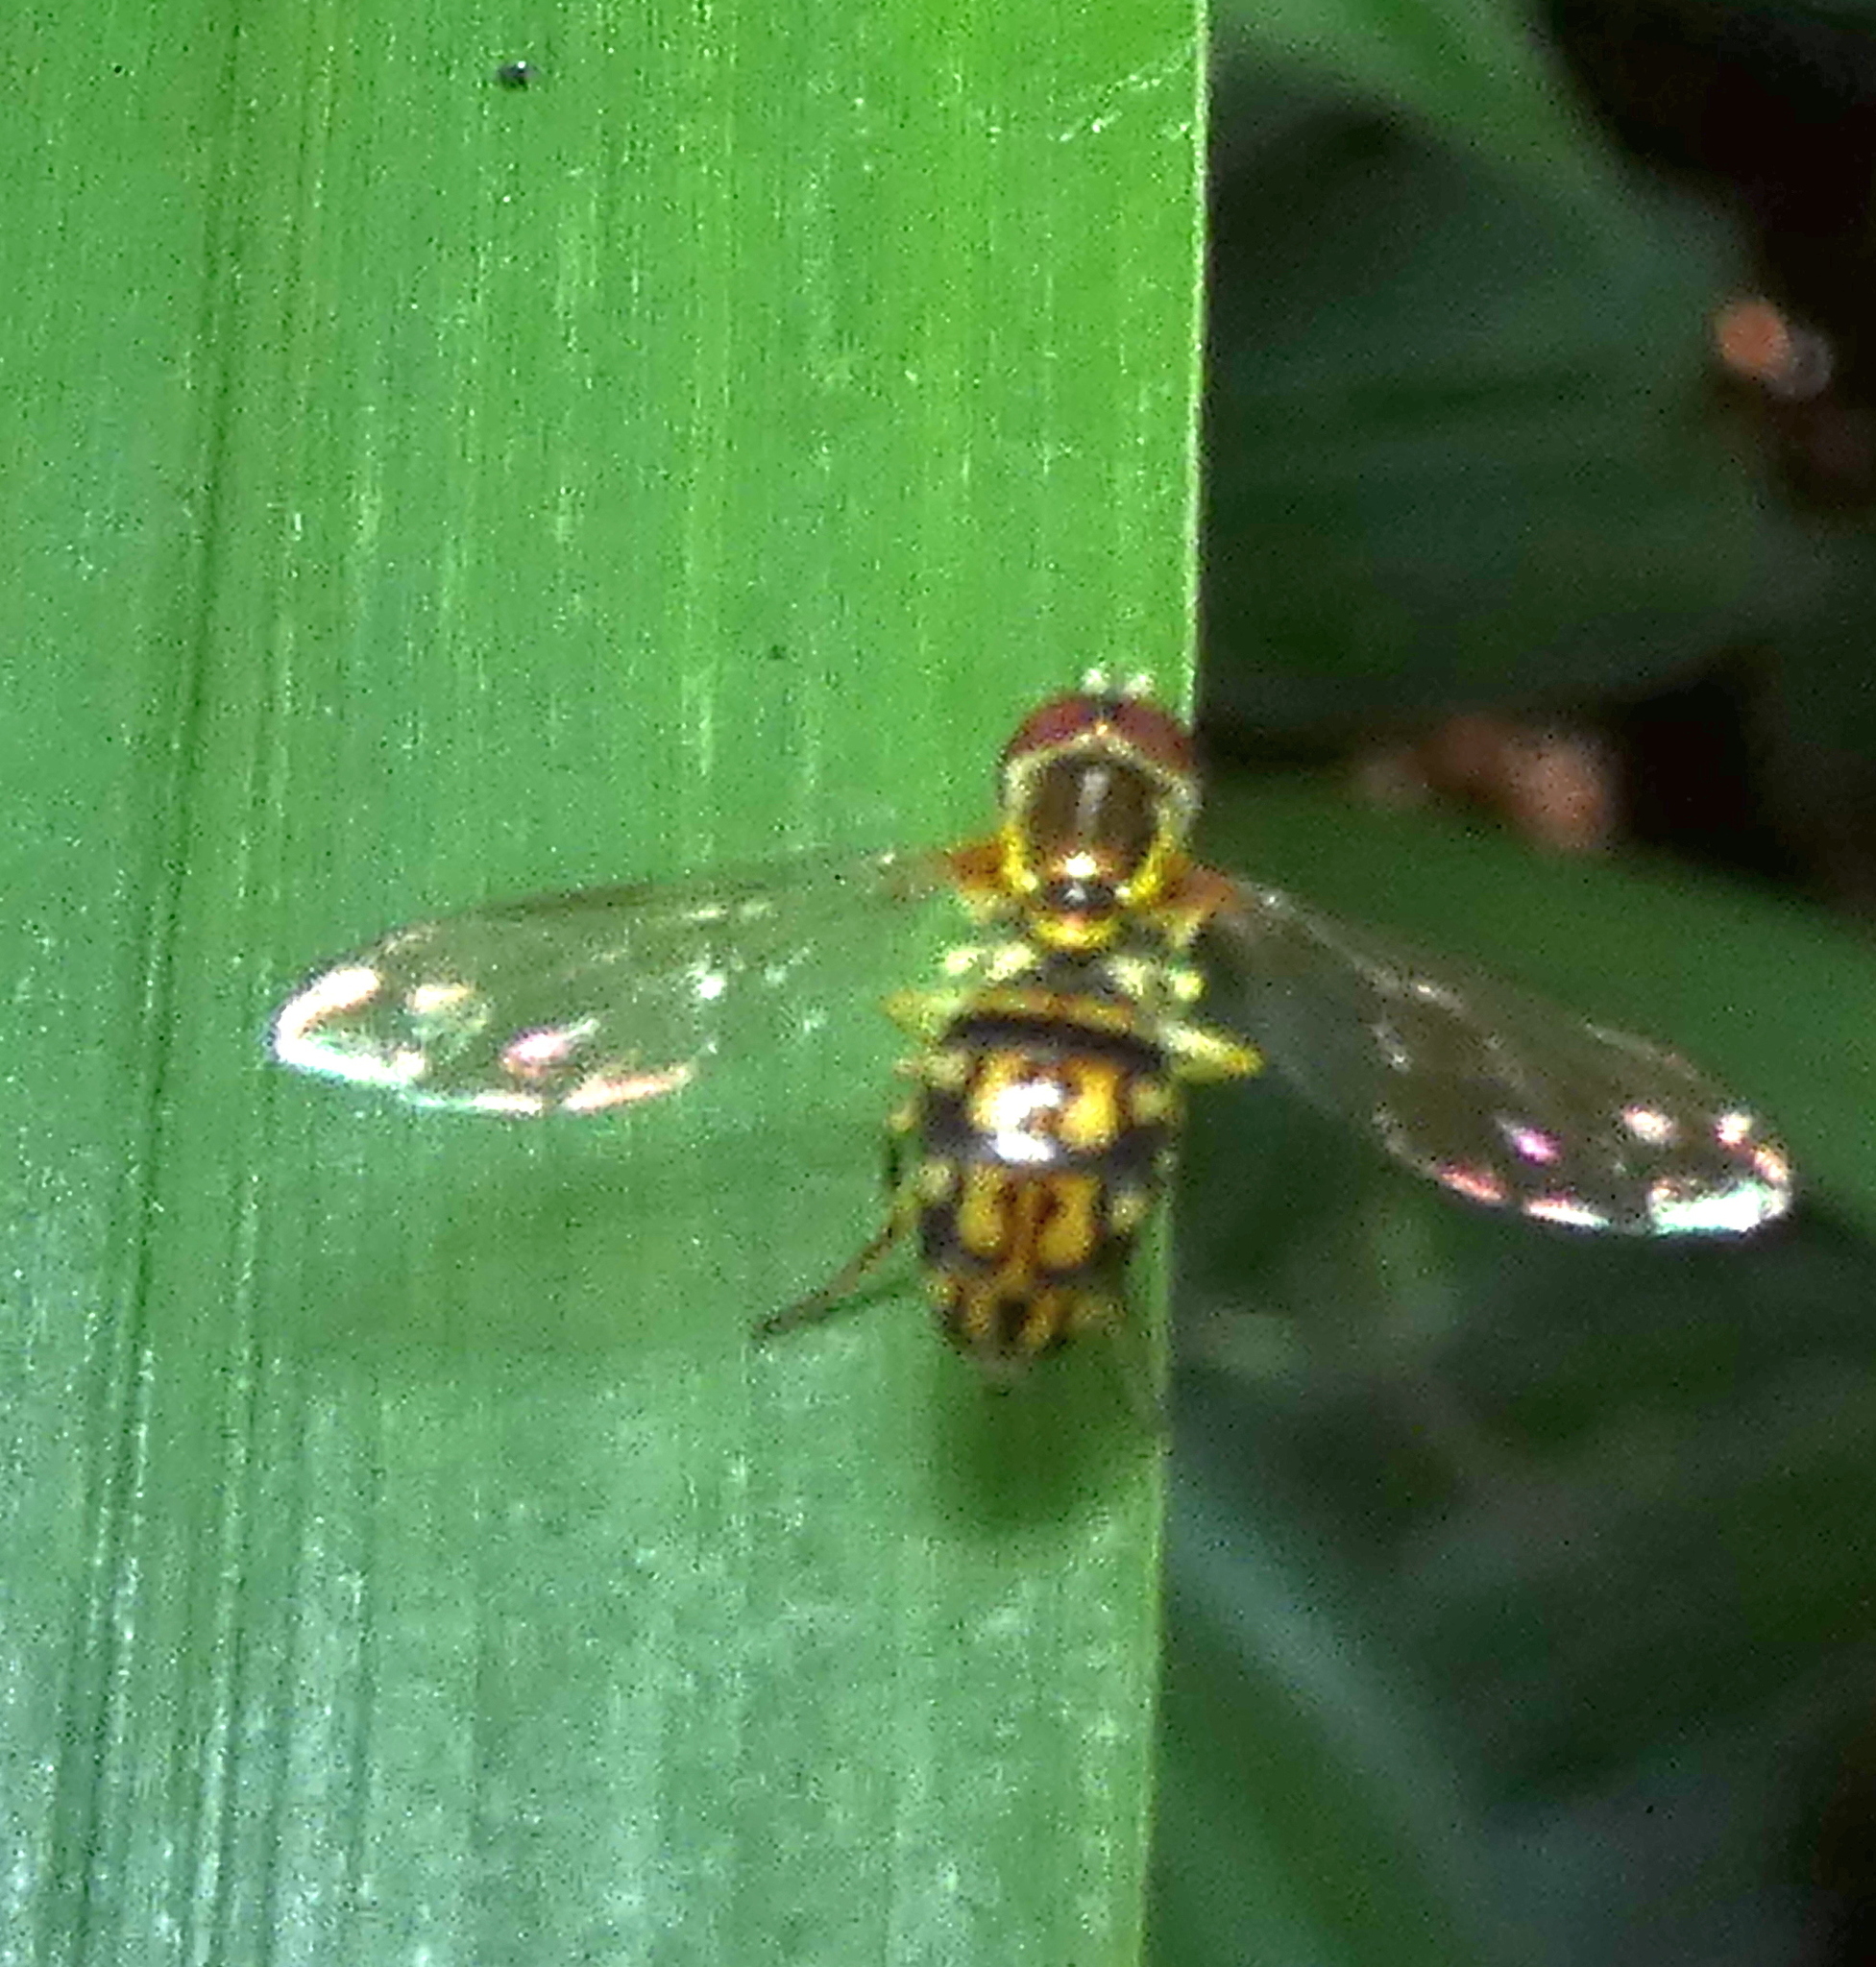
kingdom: Animalia
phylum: Arthropoda
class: Insecta
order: Diptera
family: Syrphidae
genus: Toxomerus
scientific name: Toxomerus pictus
